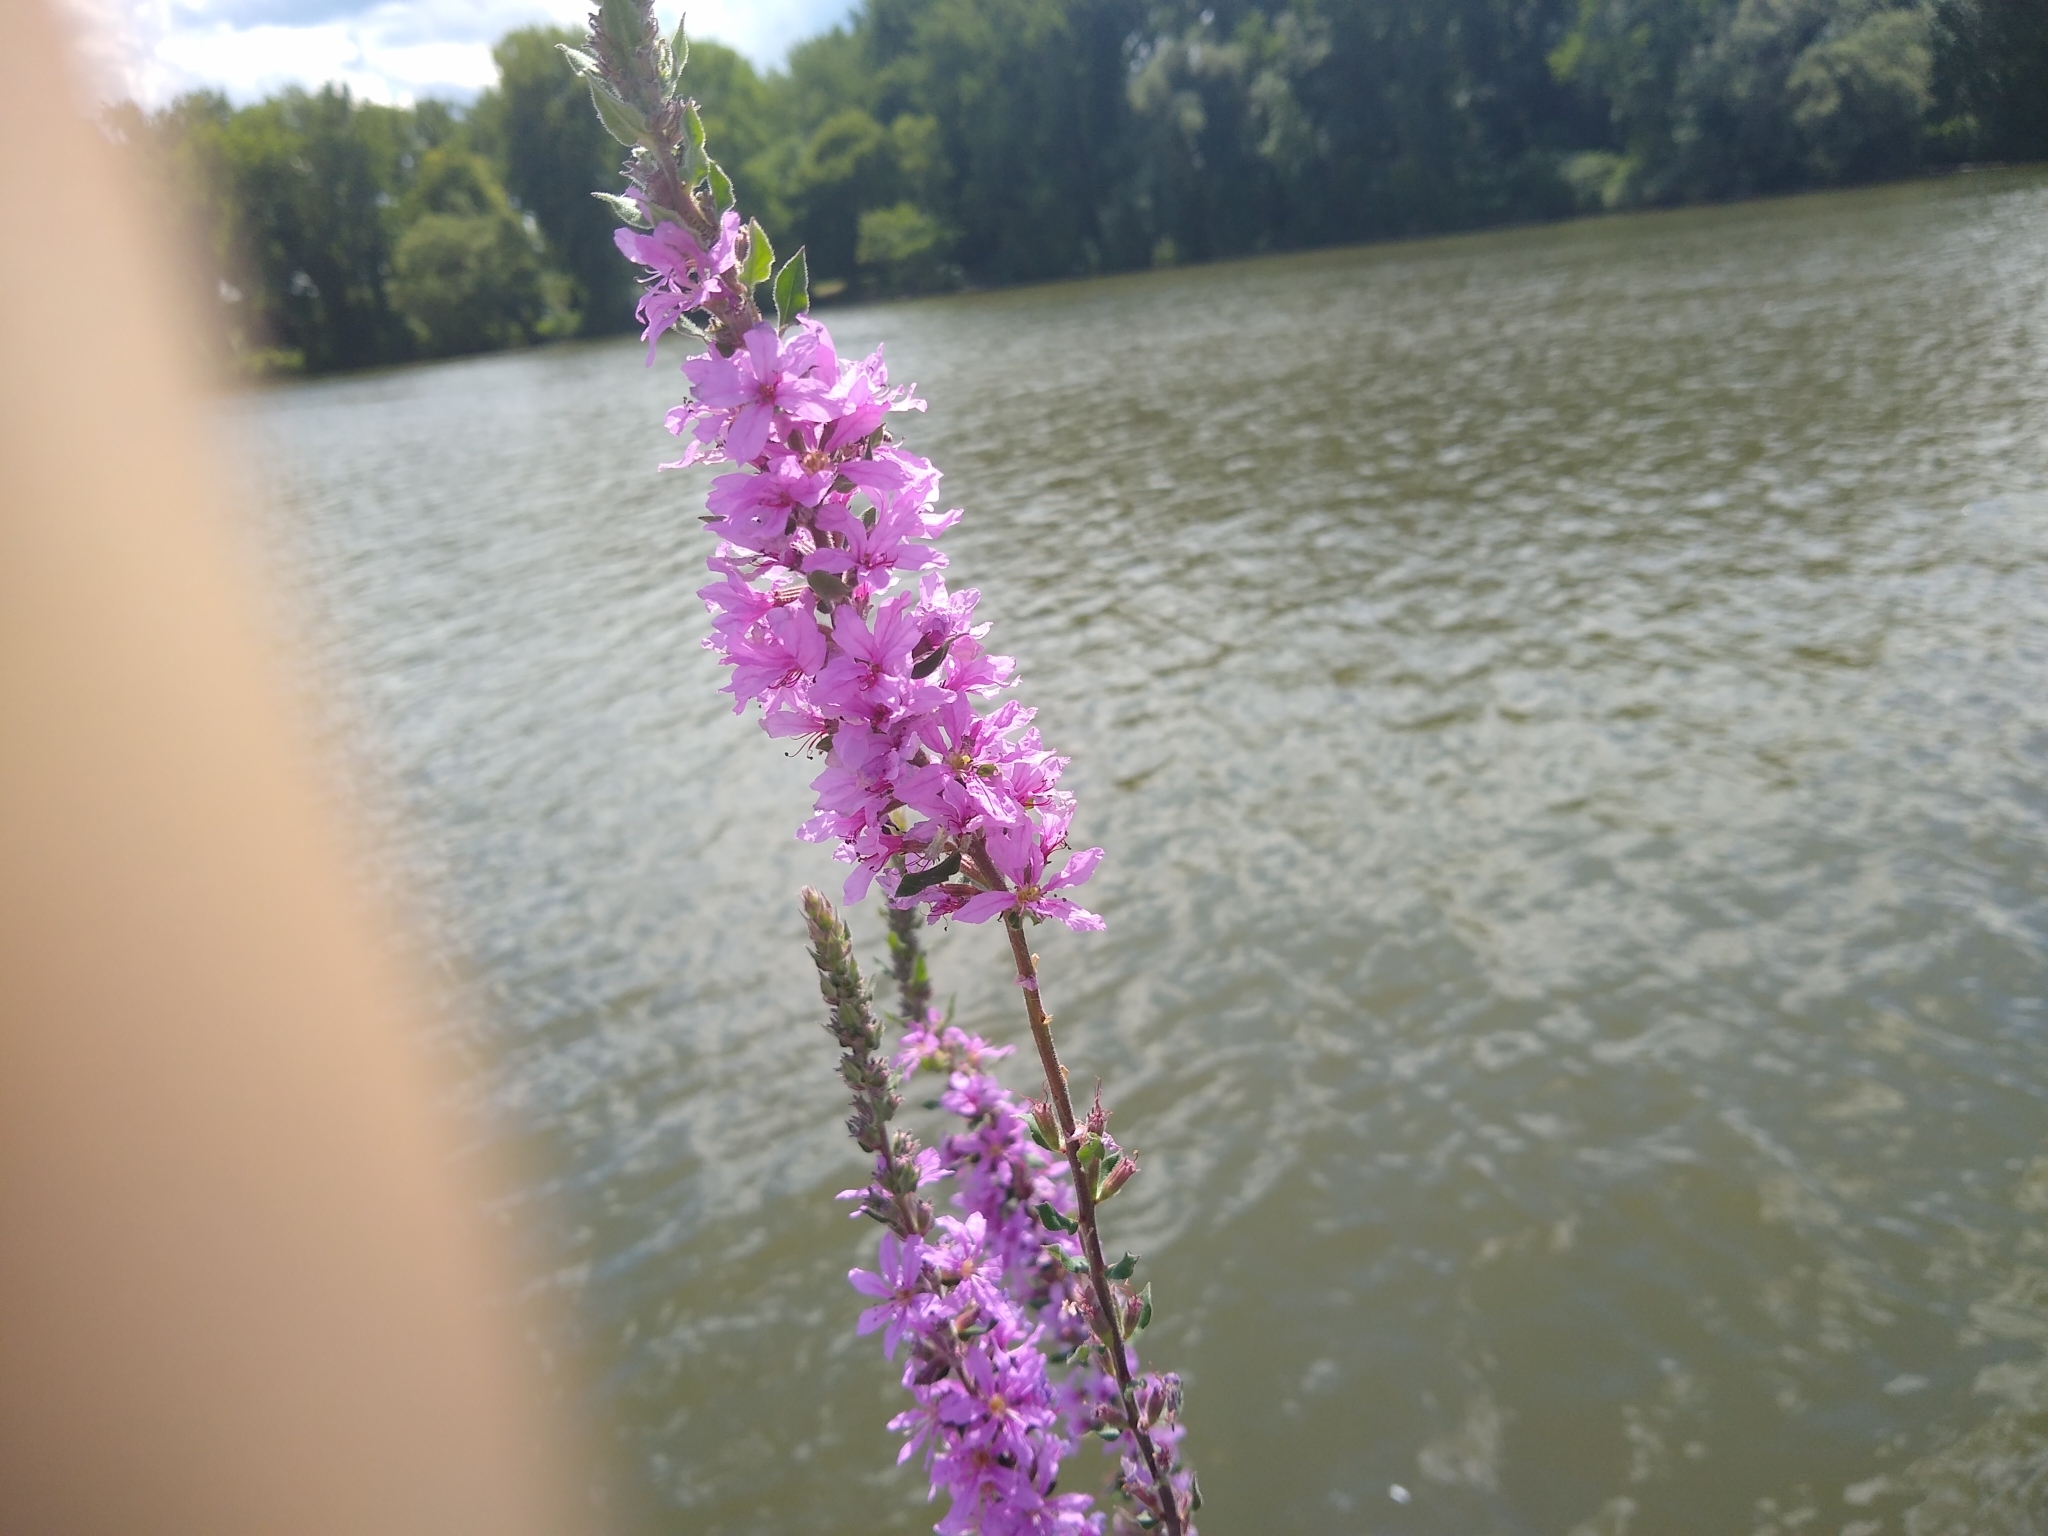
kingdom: Plantae
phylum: Tracheophyta
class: Magnoliopsida
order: Myrtales
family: Lythraceae
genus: Lythrum
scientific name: Lythrum salicaria
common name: Purple loosestrife
